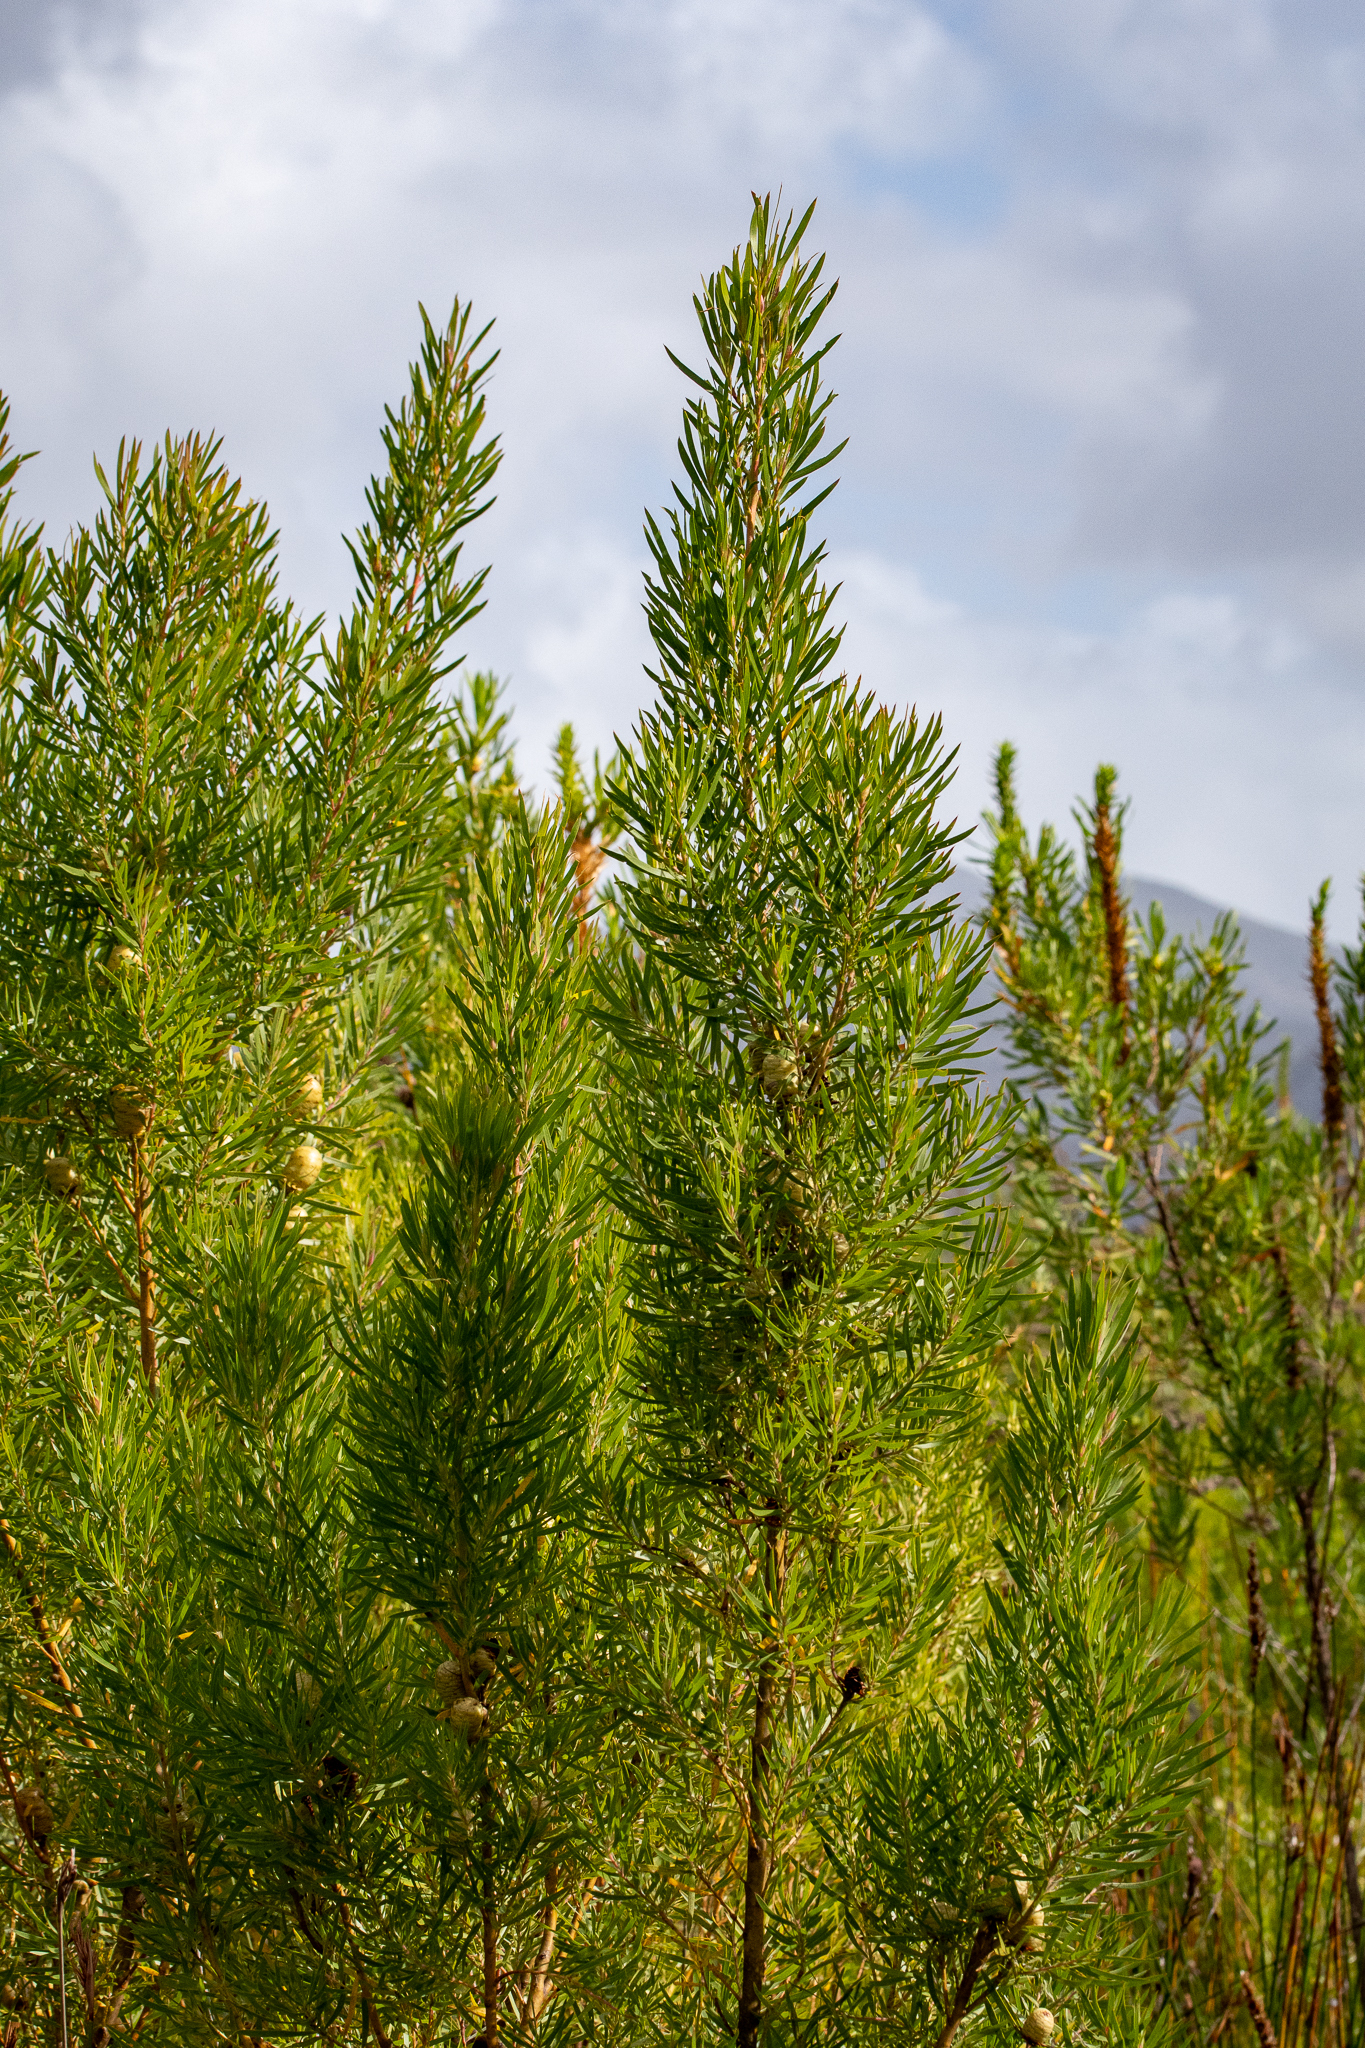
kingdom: Plantae
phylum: Tracheophyta
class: Magnoliopsida
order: Proteales
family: Proteaceae
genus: Leucadendron
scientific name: Leucadendron salicifolium
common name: Common stream conebush
